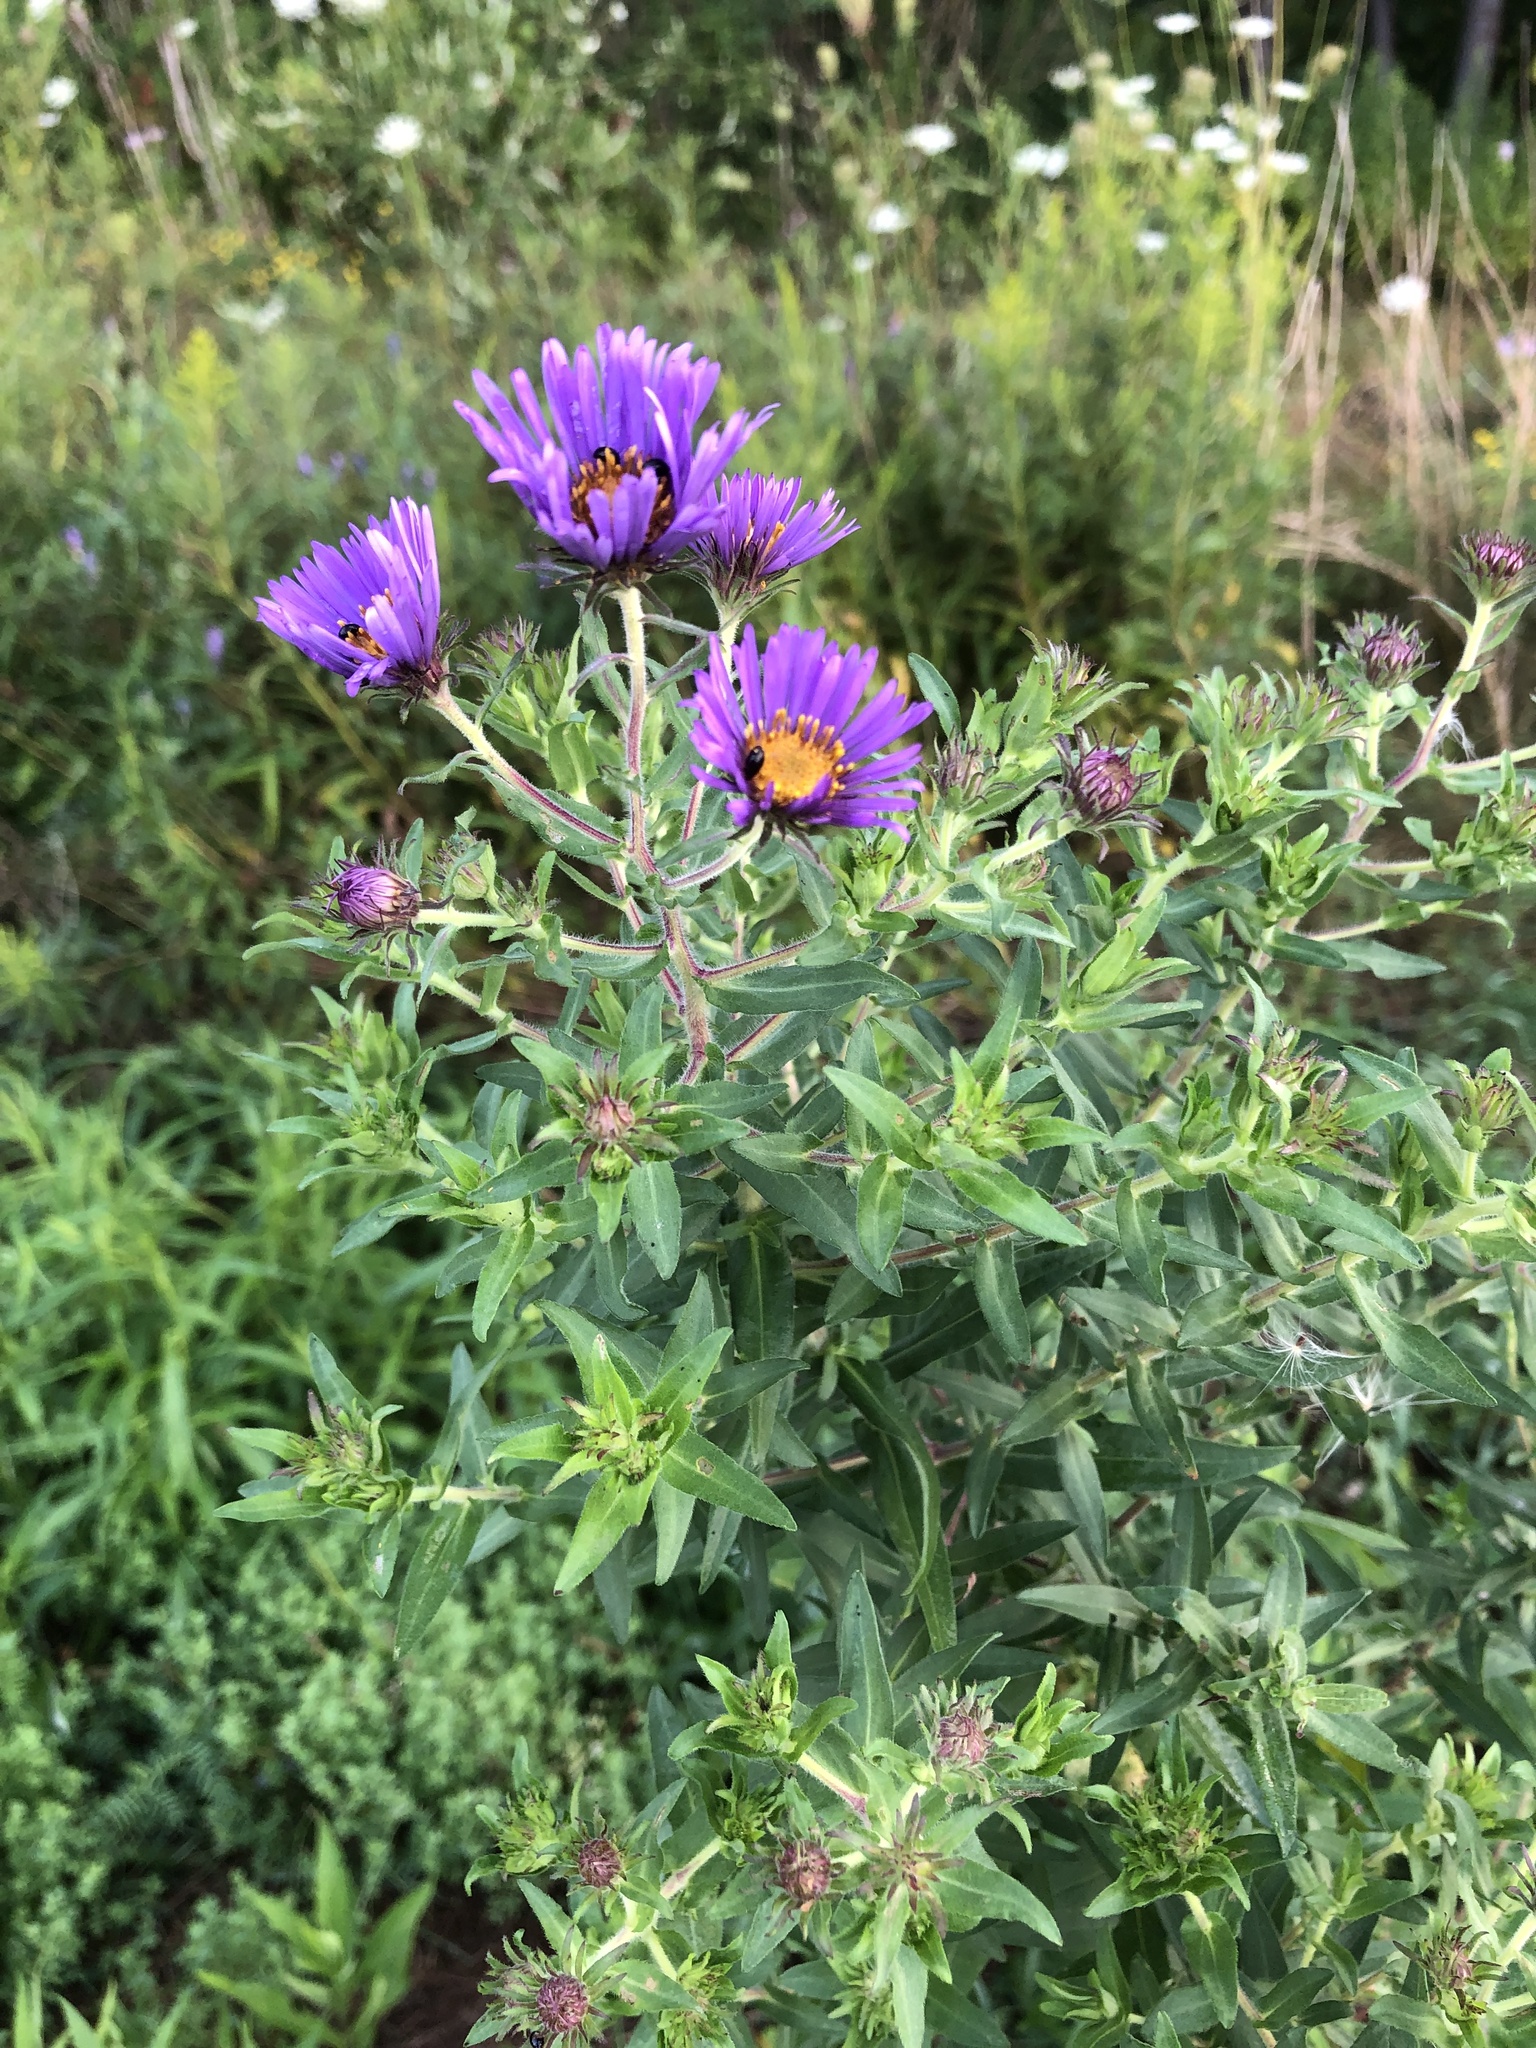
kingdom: Plantae
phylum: Tracheophyta
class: Magnoliopsida
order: Asterales
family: Asteraceae
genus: Symphyotrichum
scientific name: Symphyotrichum novae-angliae
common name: Michaelmas daisy
